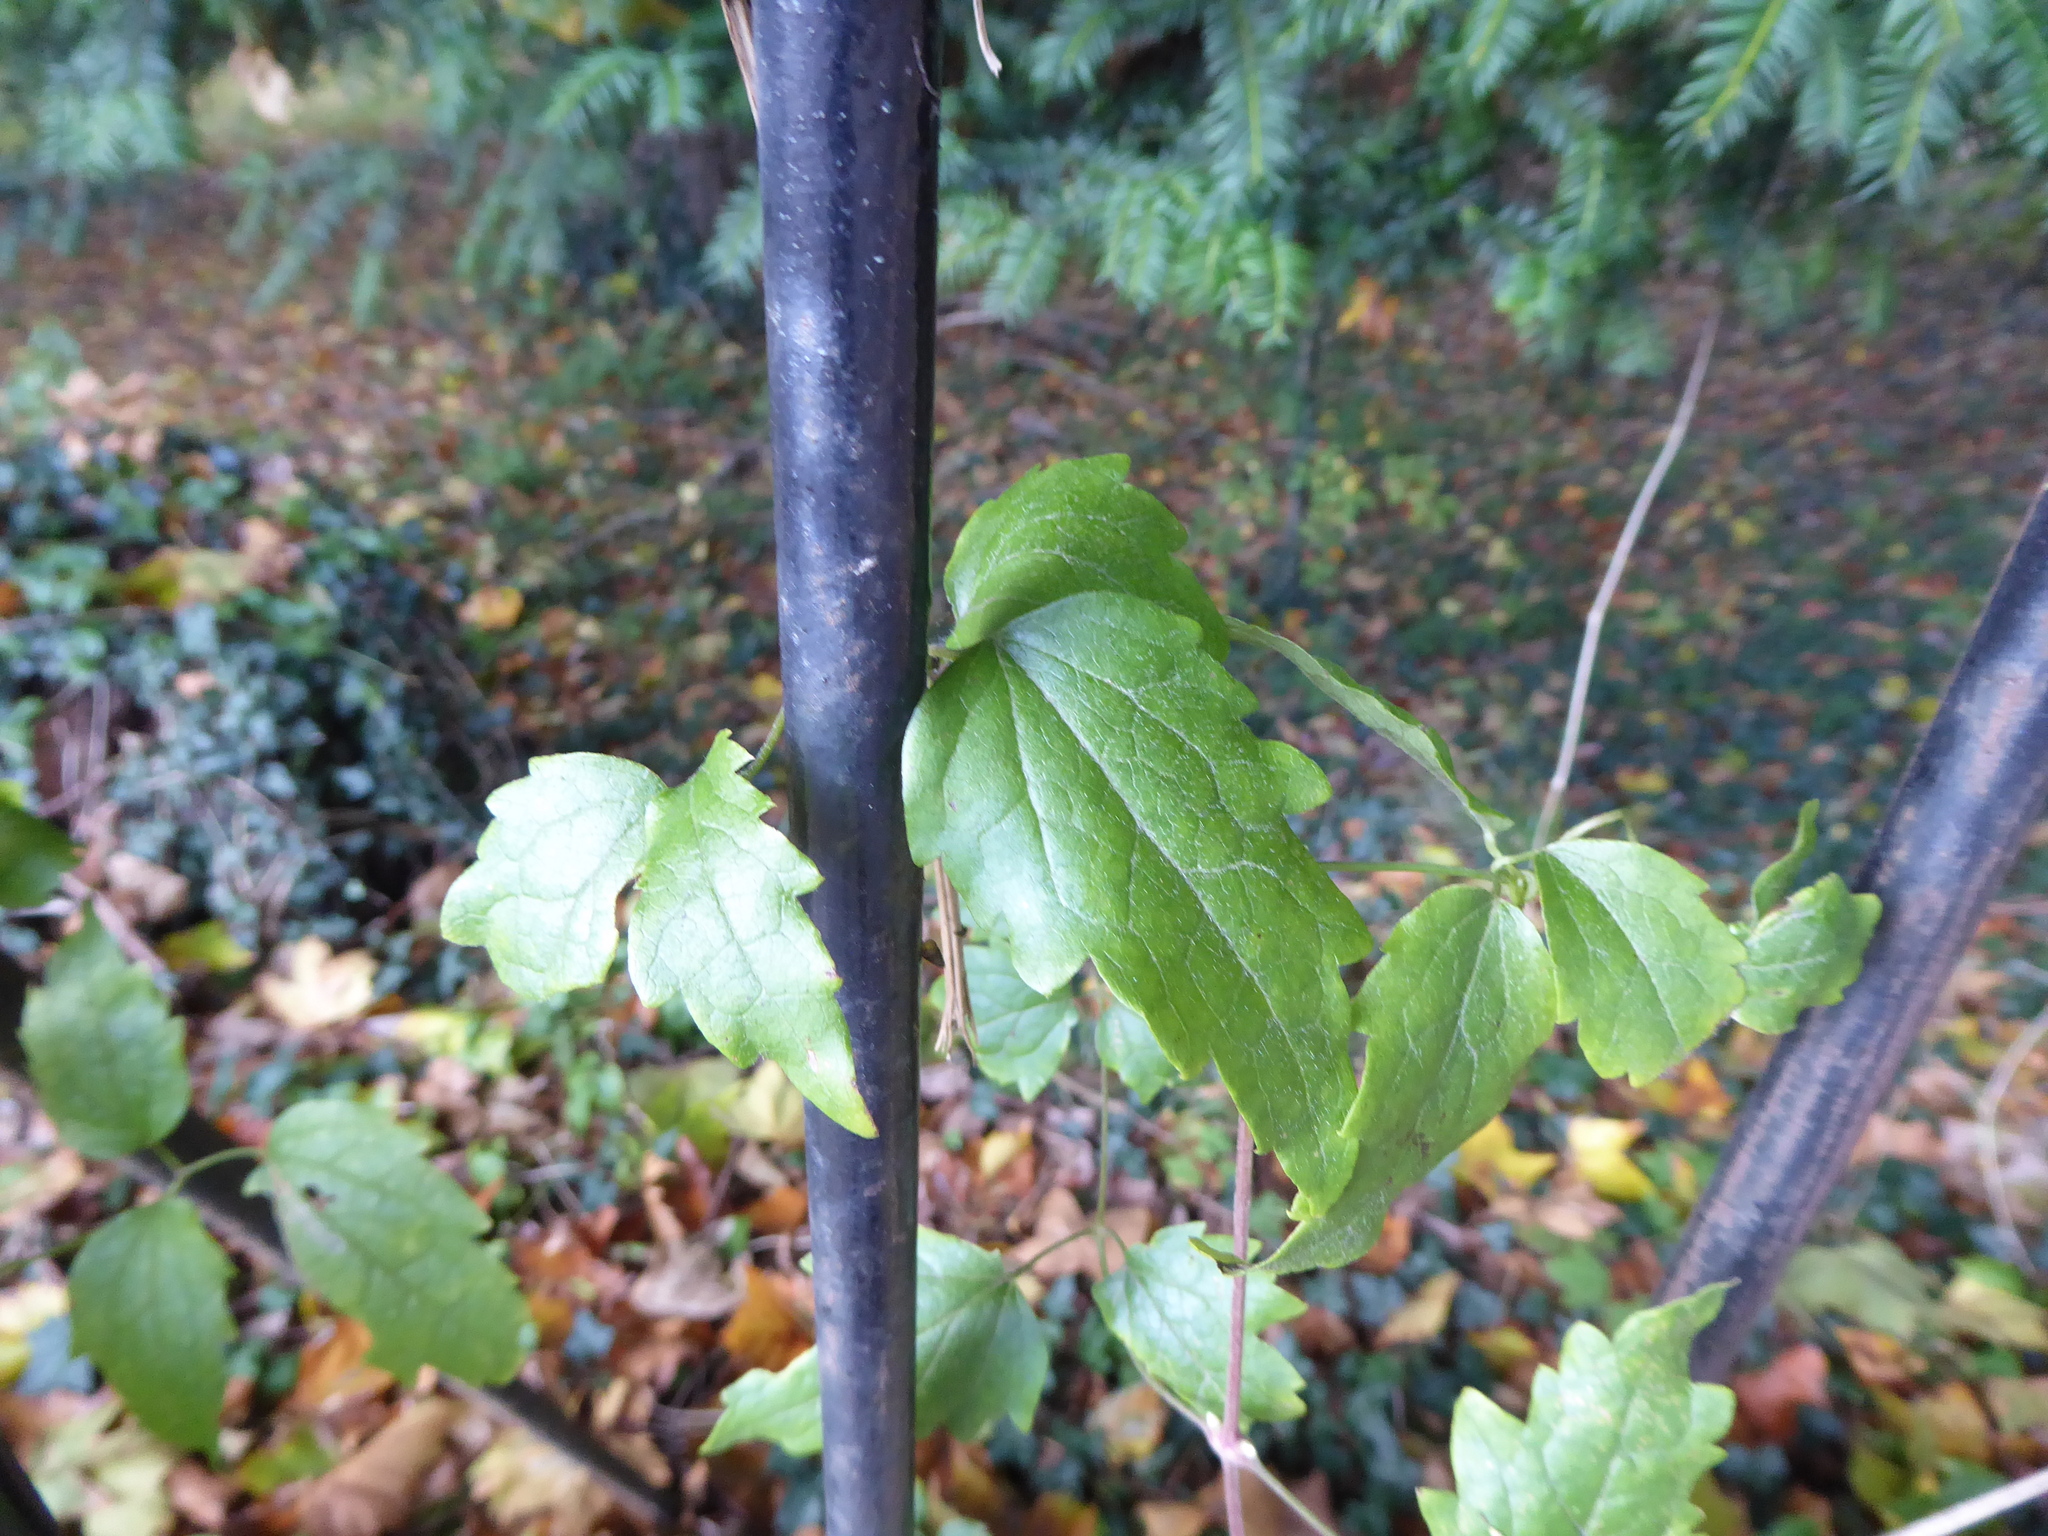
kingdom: Plantae
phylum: Tracheophyta
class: Magnoliopsida
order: Ranunculales
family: Ranunculaceae
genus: Clematis
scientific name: Clematis vitalba
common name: Evergreen clematis
